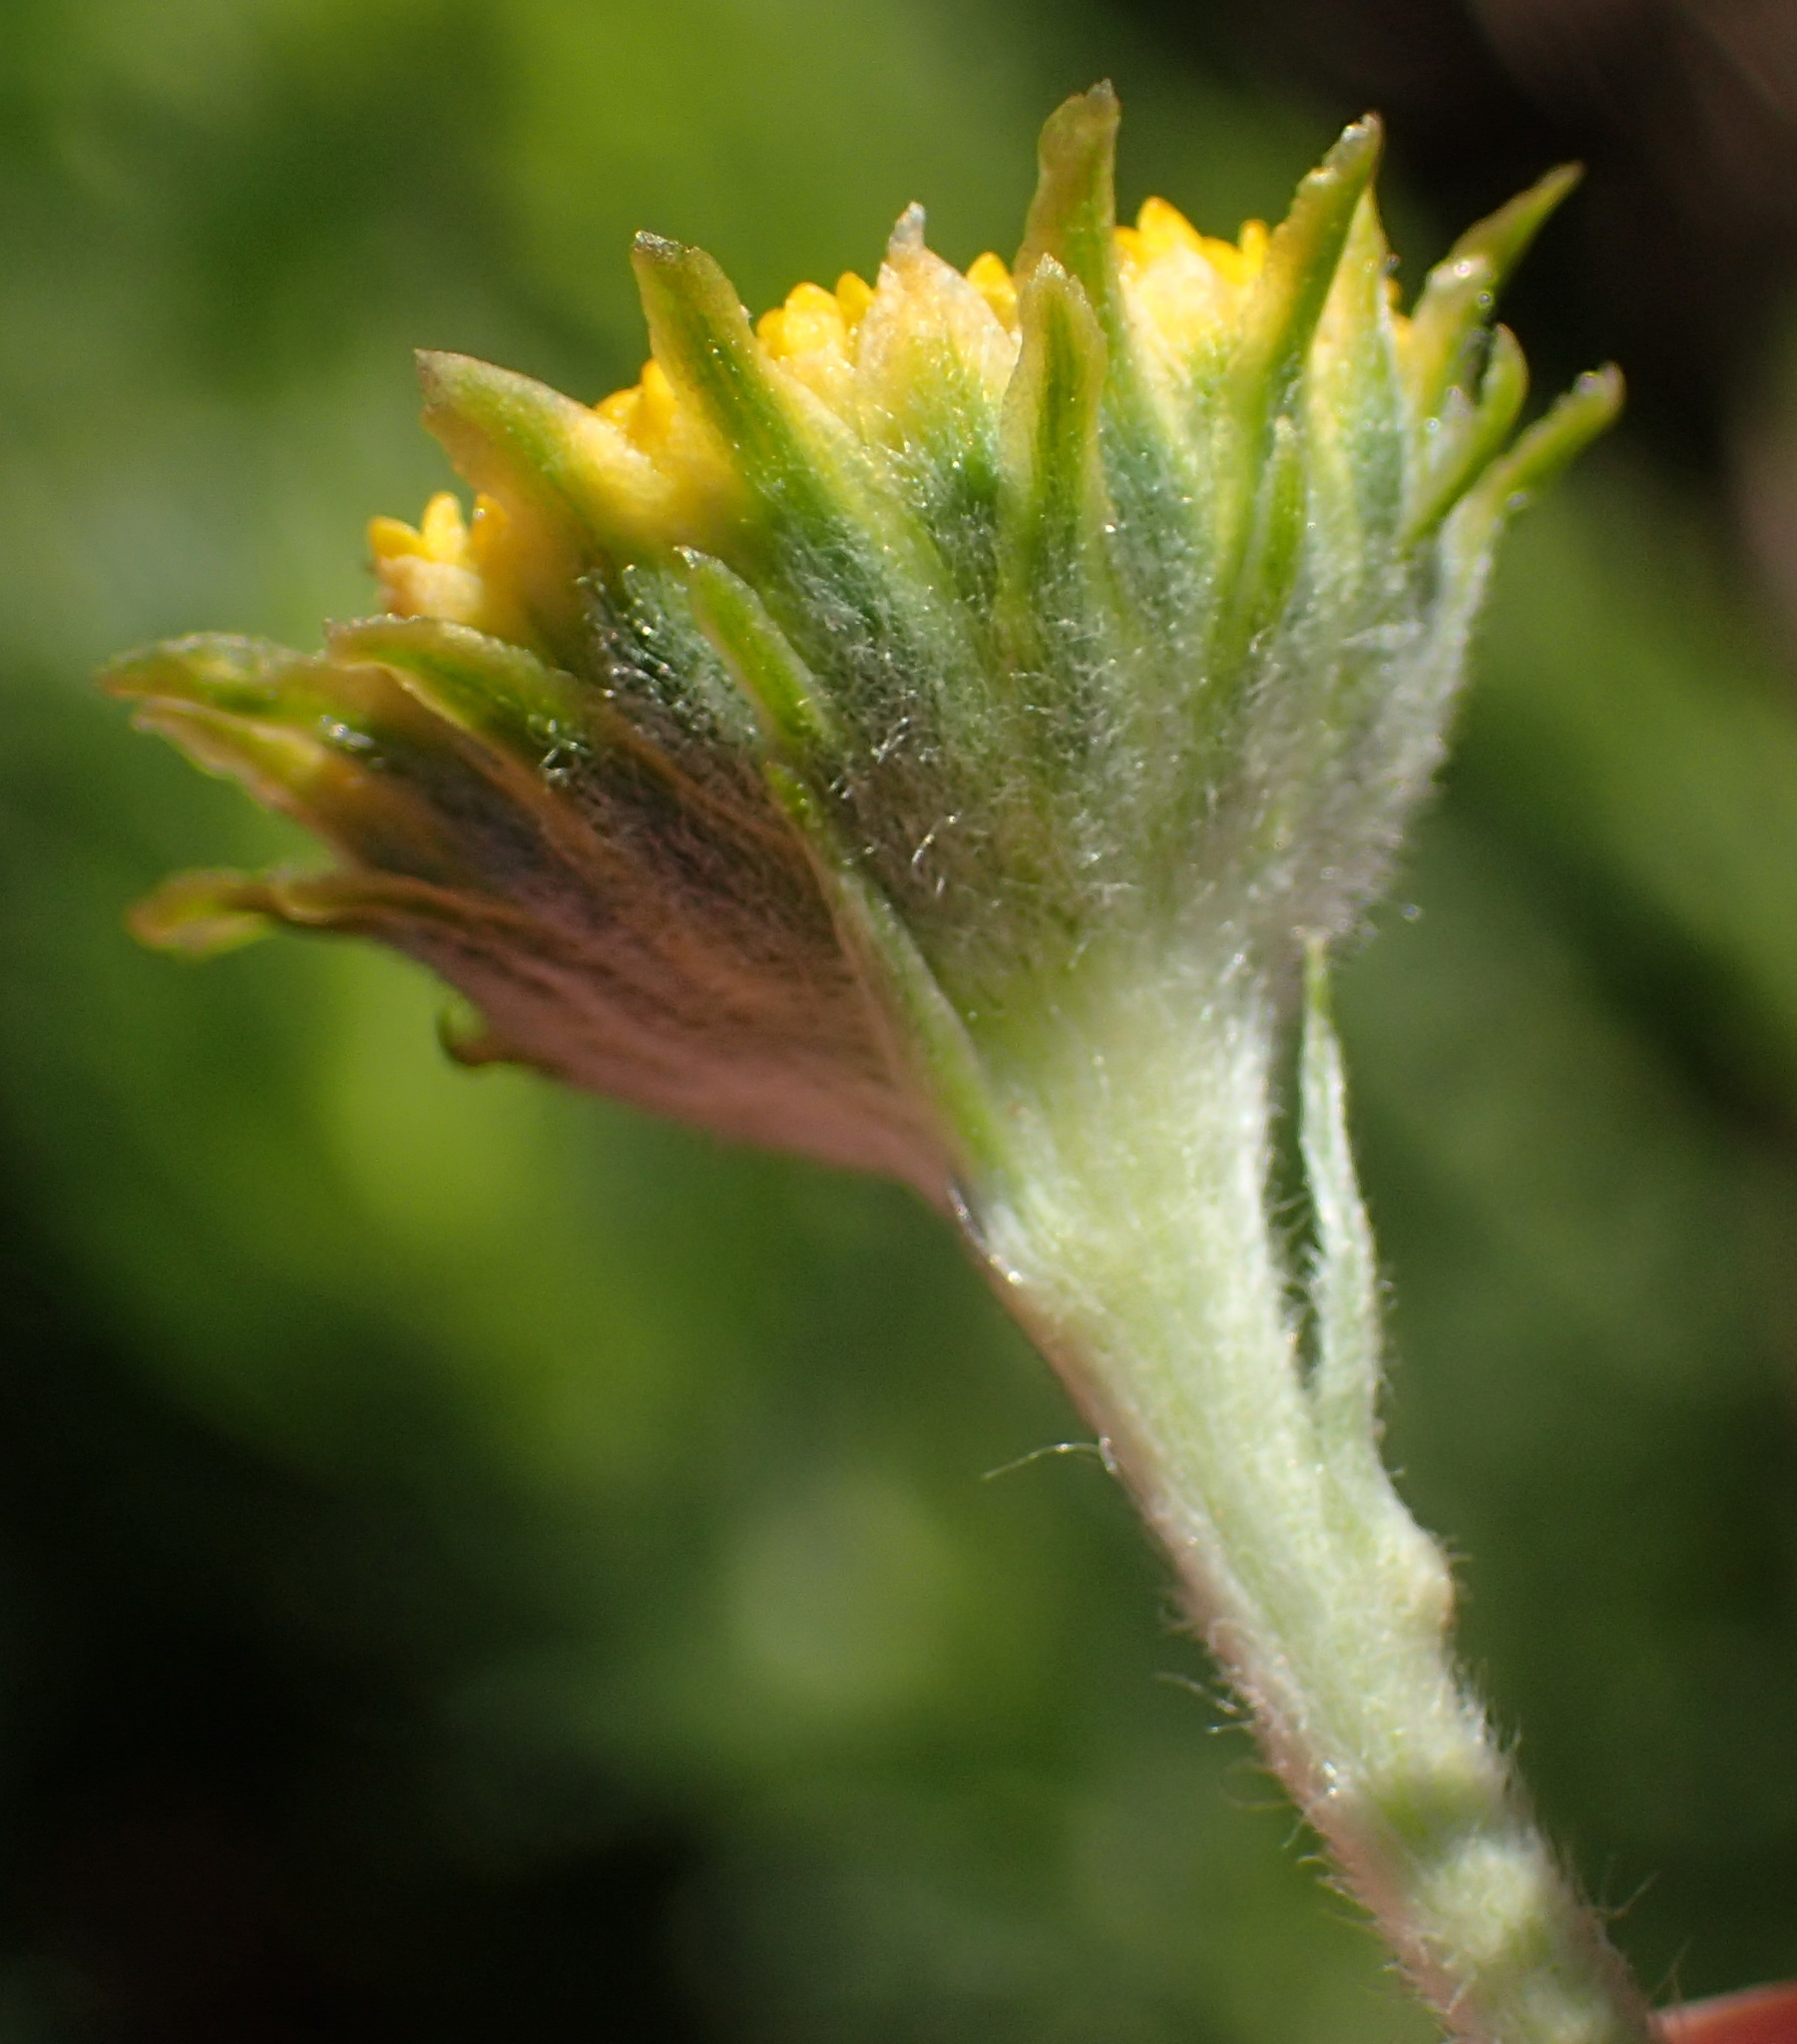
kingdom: Plantae
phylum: Tracheophyta
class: Magnoliopsida
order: Asterales
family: Asteraceae
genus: Schistostephium
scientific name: Schistostephium umbellatum
